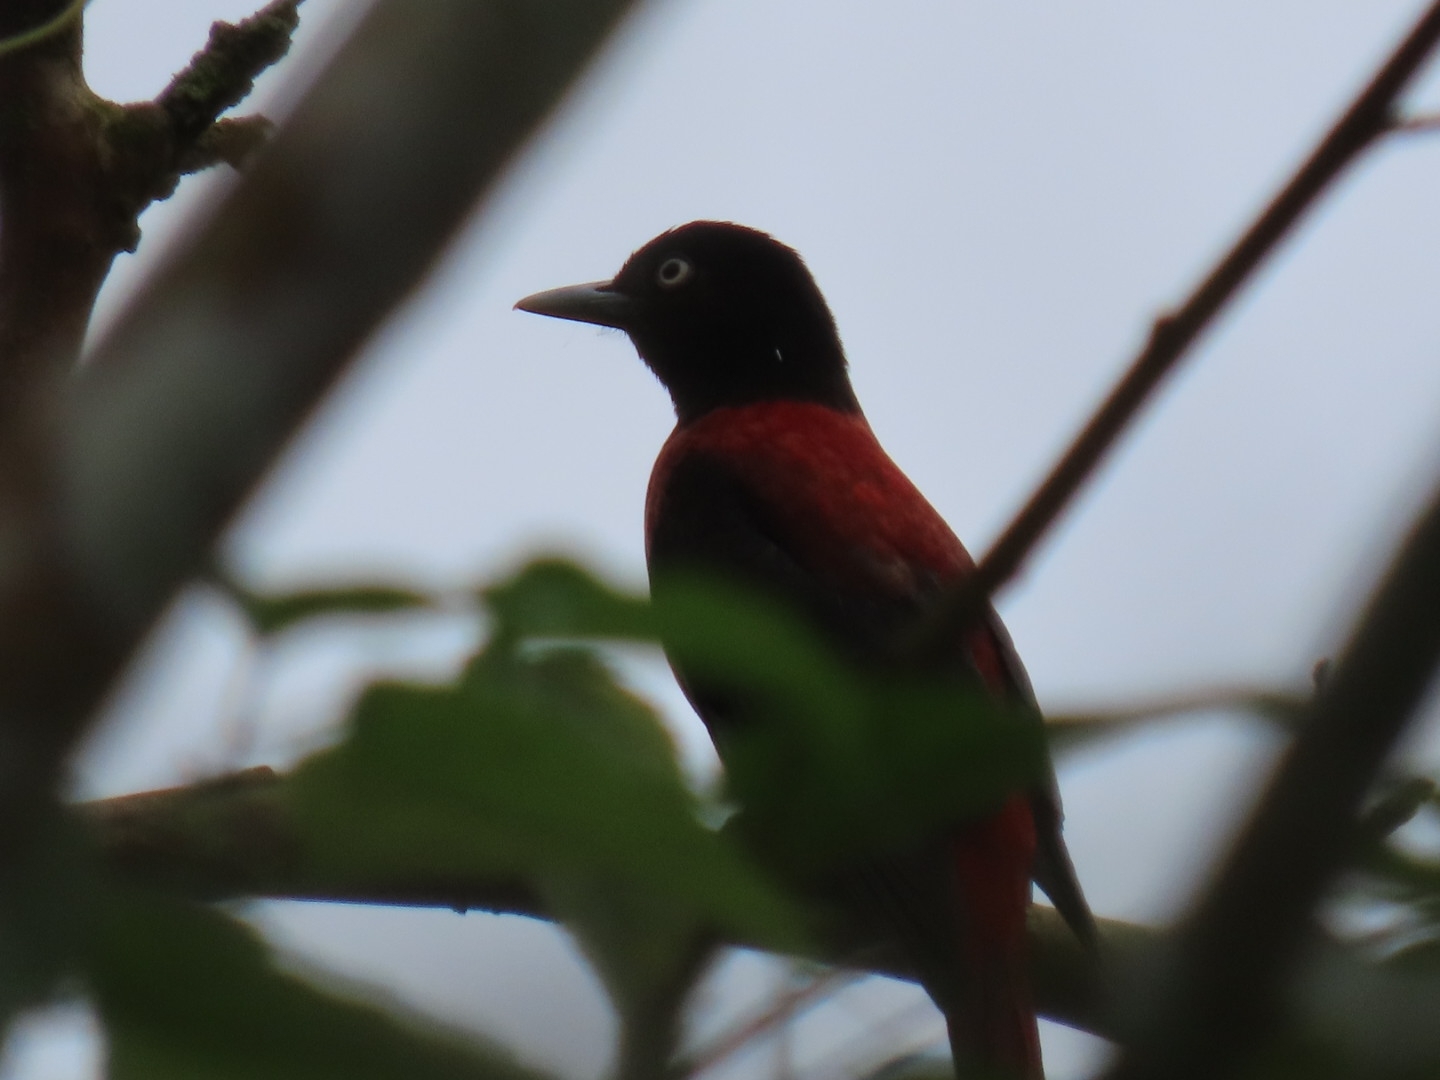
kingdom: Animalia
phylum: Chordata
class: Aves
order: Passeriformes
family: Oriolidae
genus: Oriolus
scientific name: Oriolus traillii
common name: Maroon oriole
